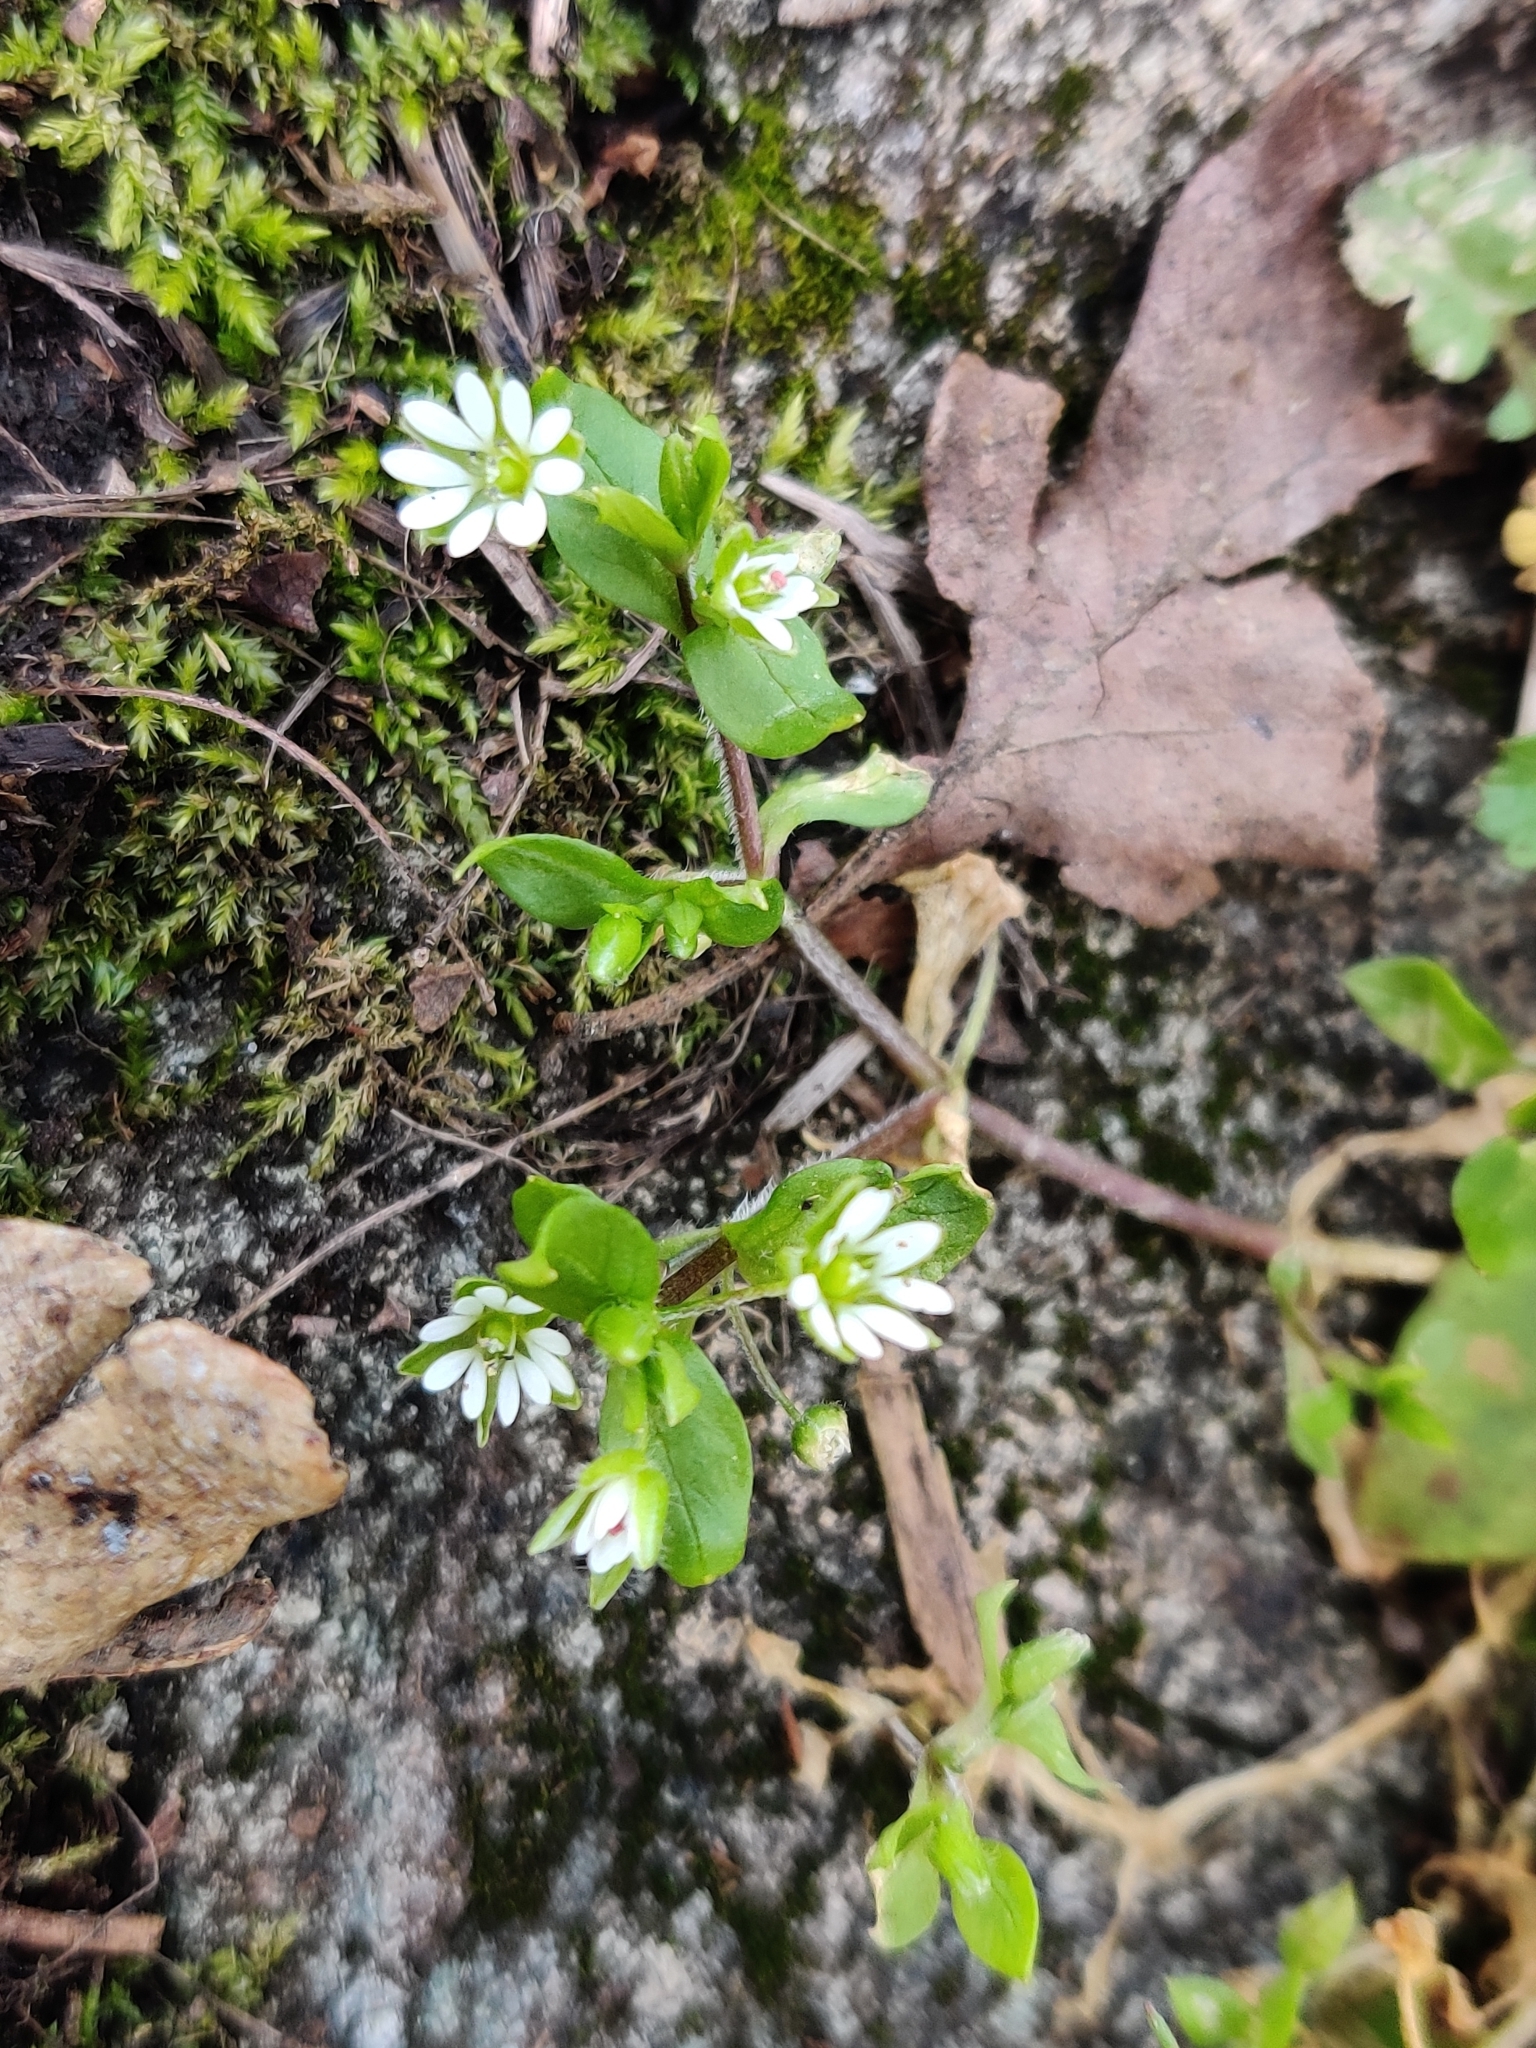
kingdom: Plantae
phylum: Tracheophyta
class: Magnoliopsida
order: Caryophyllales
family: Caryophyllaceae
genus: Stellaria
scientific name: Stellaria media
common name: Common chickweed
